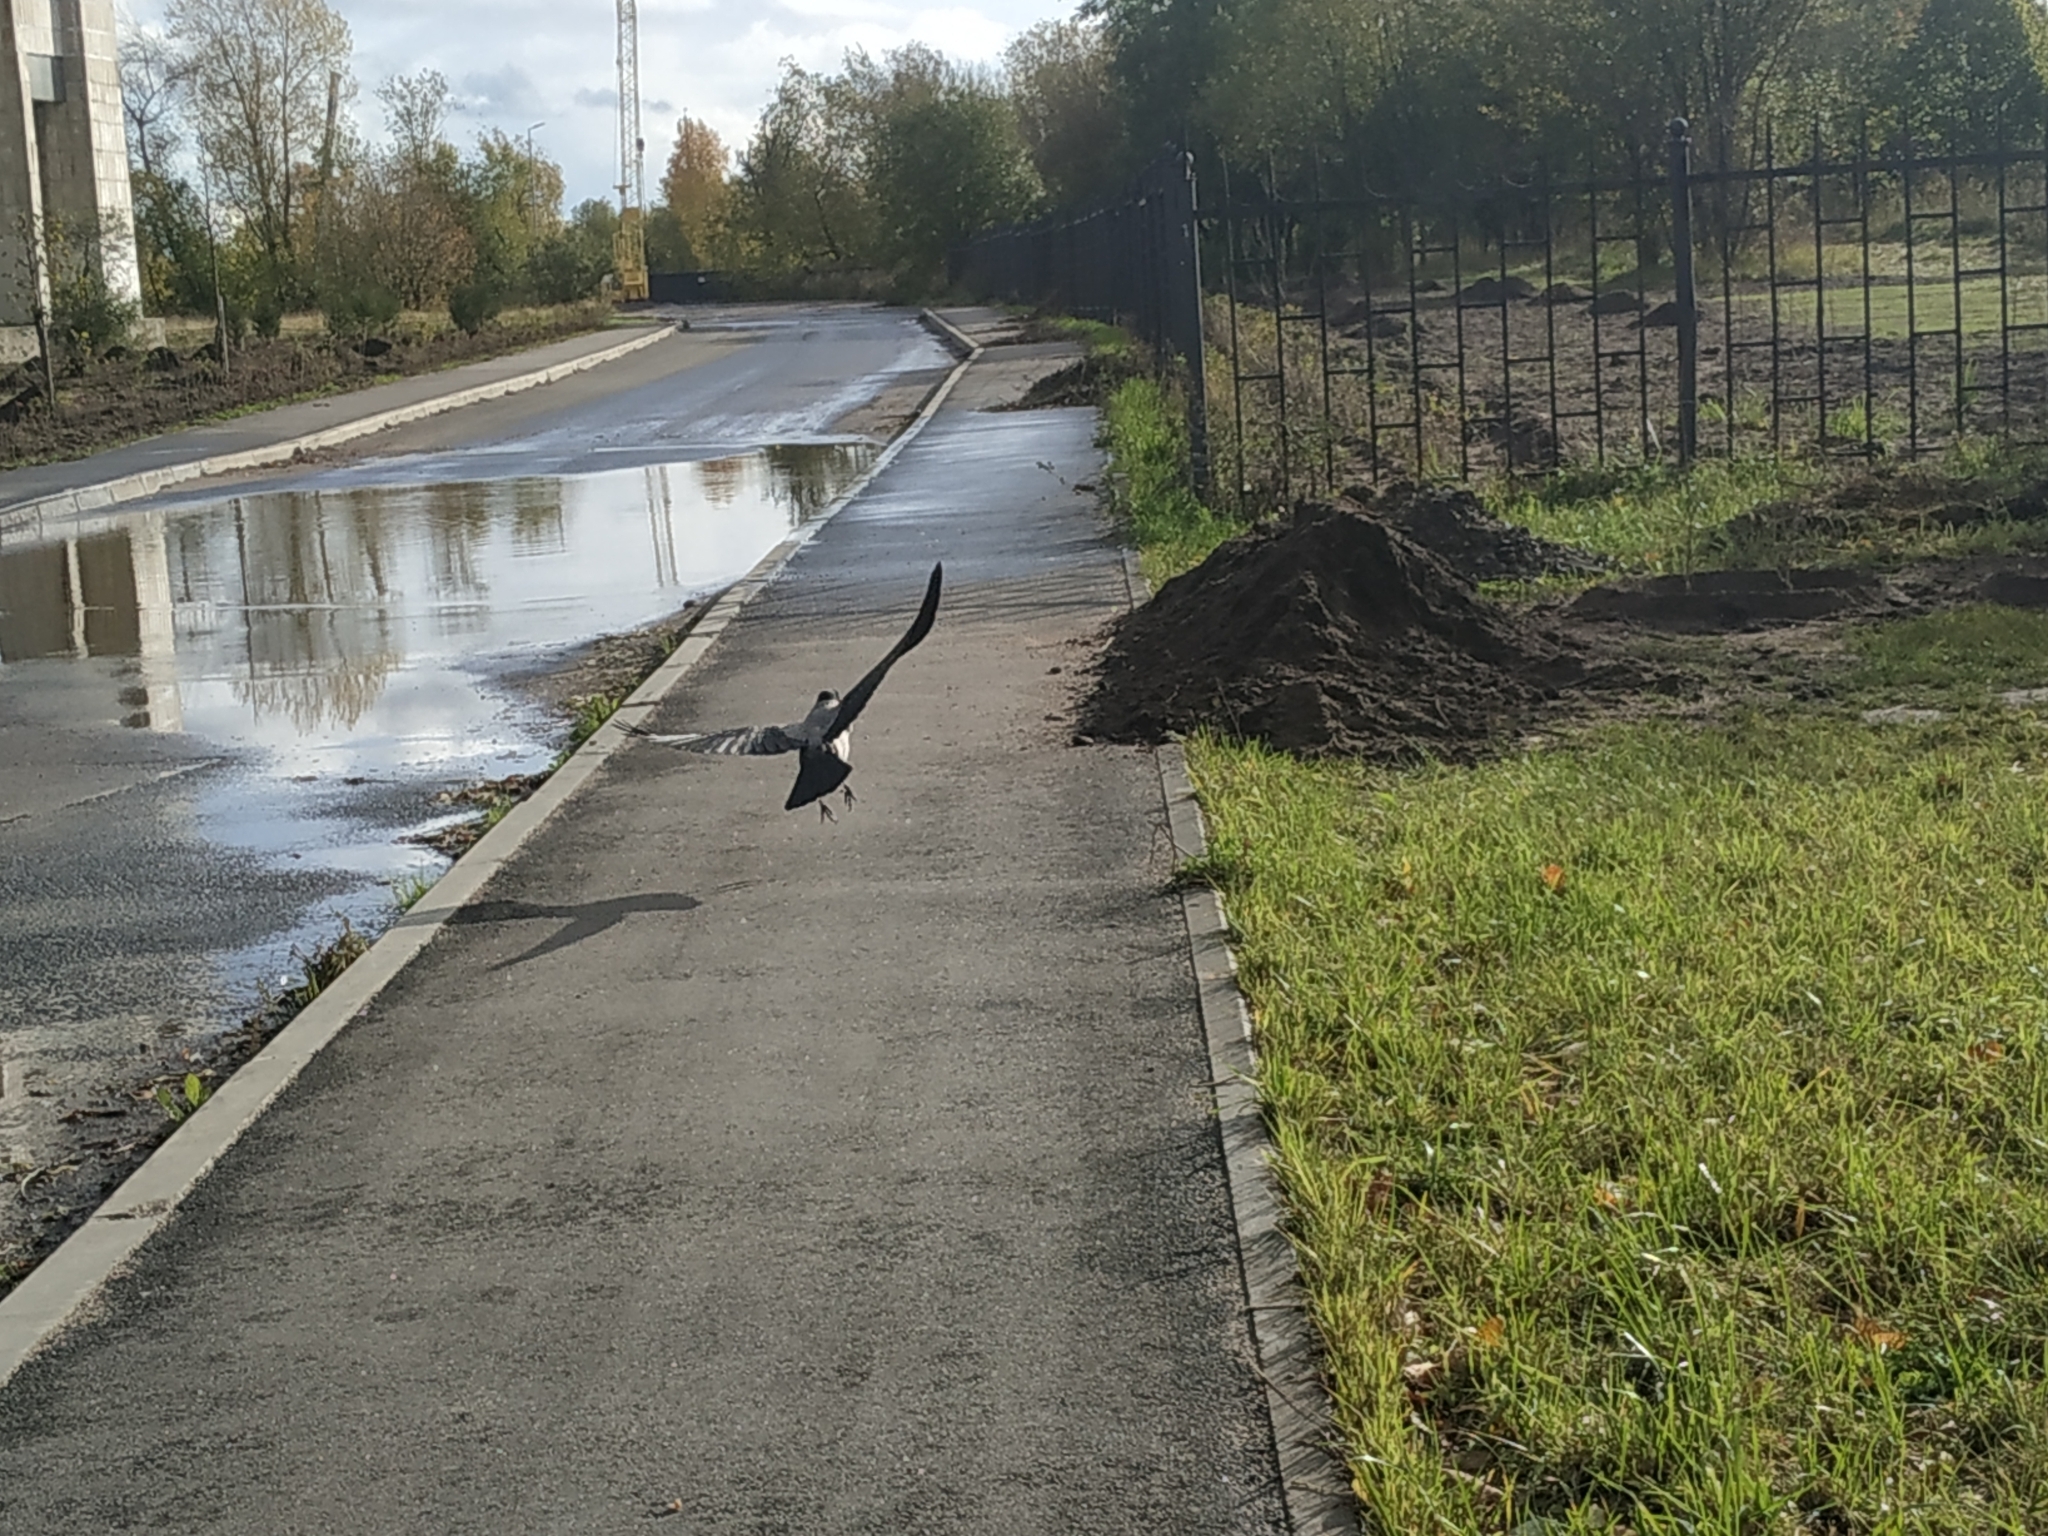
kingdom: Animalia
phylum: Chordata
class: Aves
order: Passeriformes
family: Corvidae
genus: Corvus
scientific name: Corvus cornix
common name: Hooded crow
